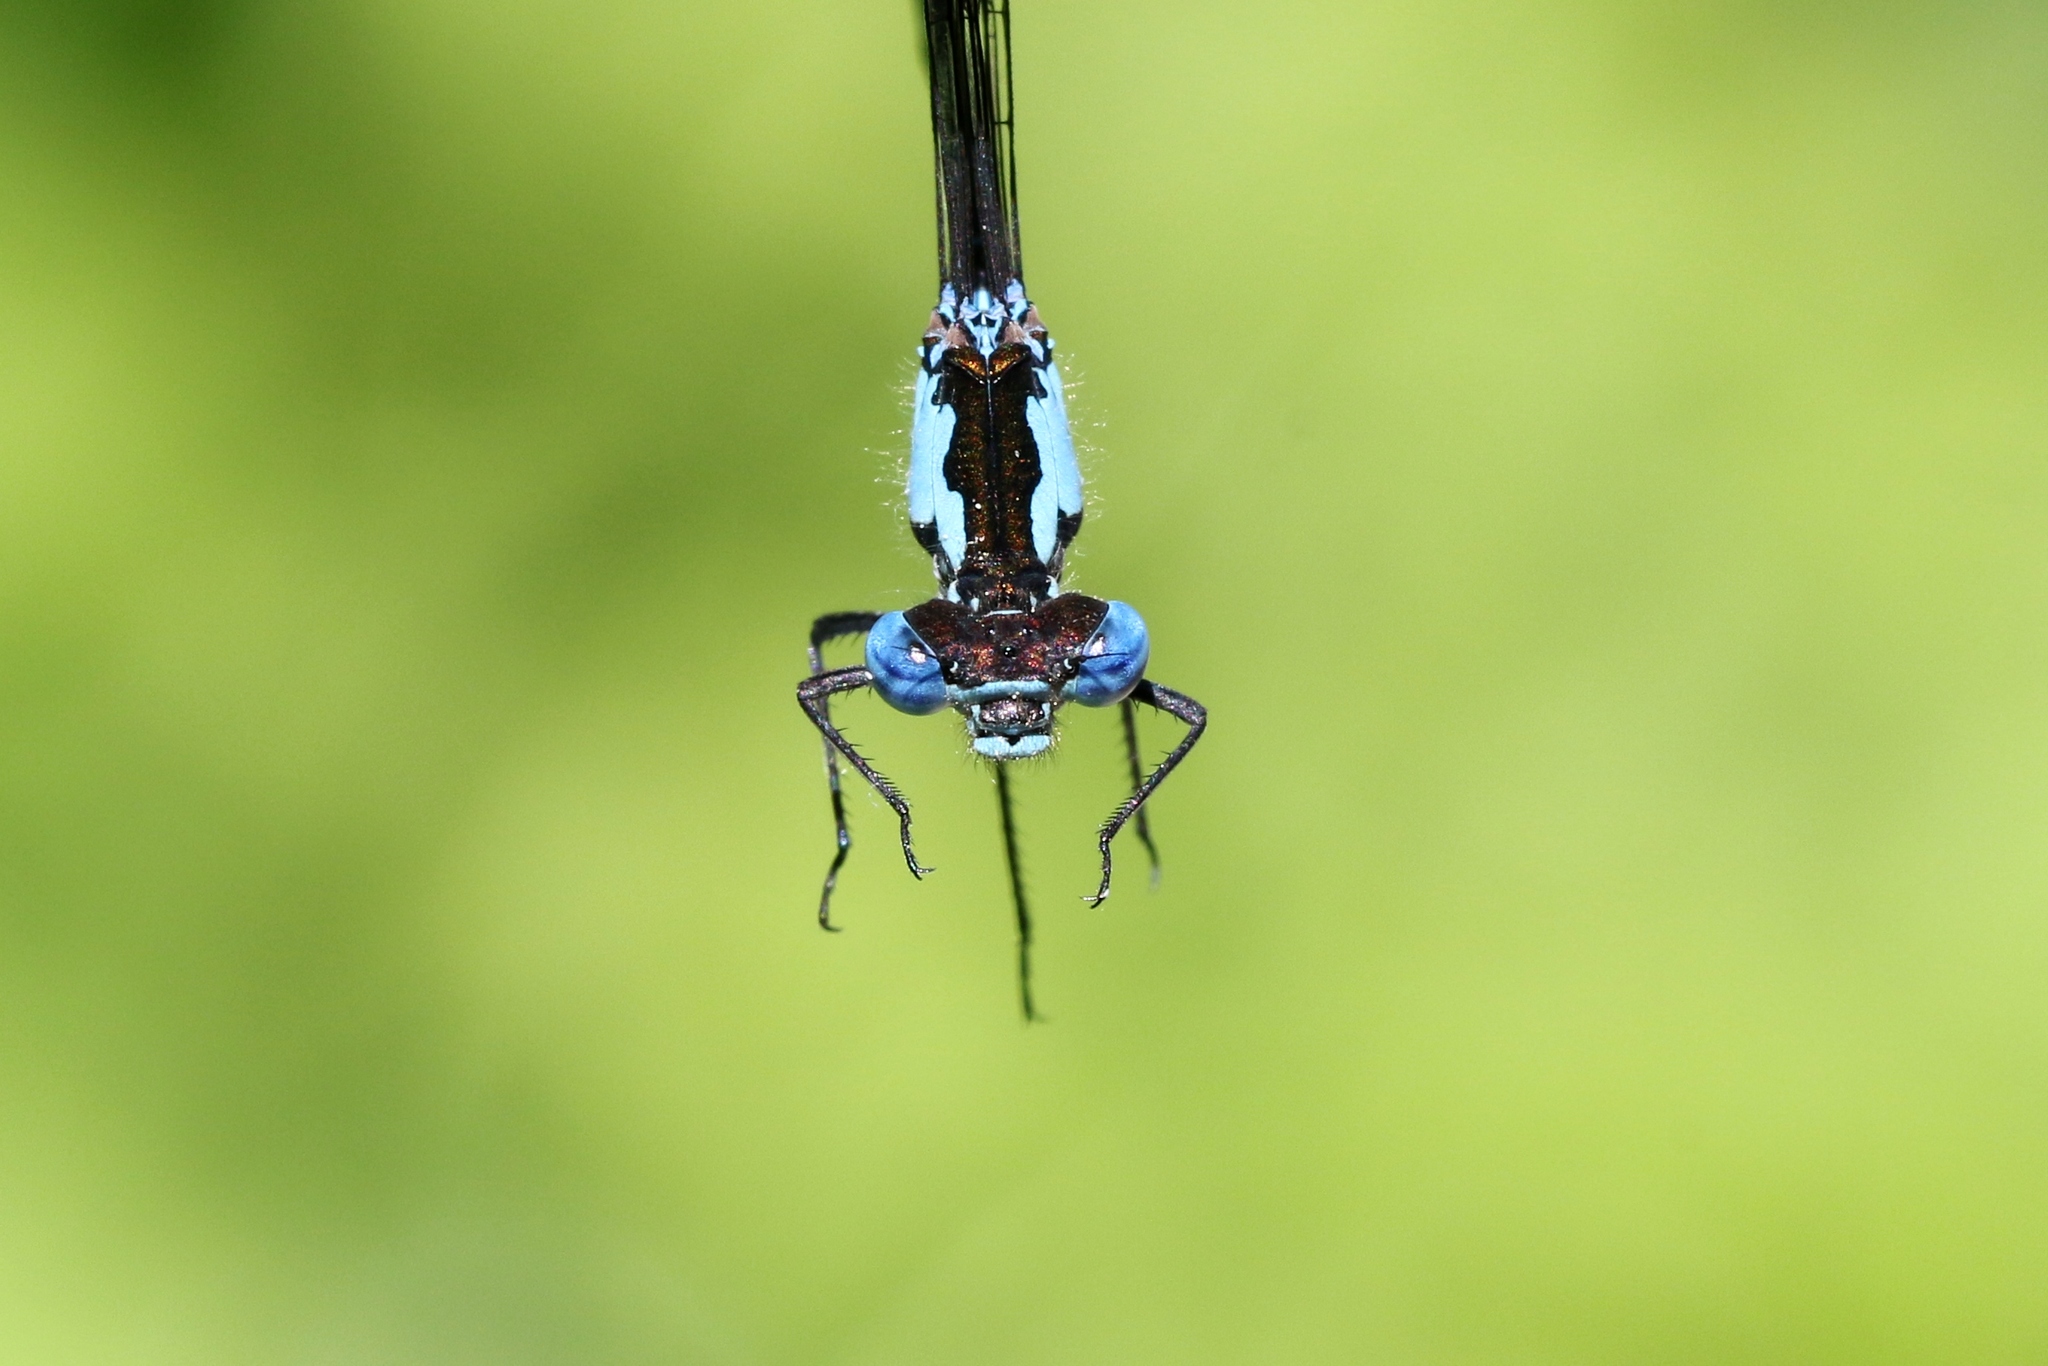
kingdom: Animalia
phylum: Arthropoda
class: Insecta
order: Odonata
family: Coenagrionidae
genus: Chromagrion
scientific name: Chromagrion conditum
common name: Aurora damsel
